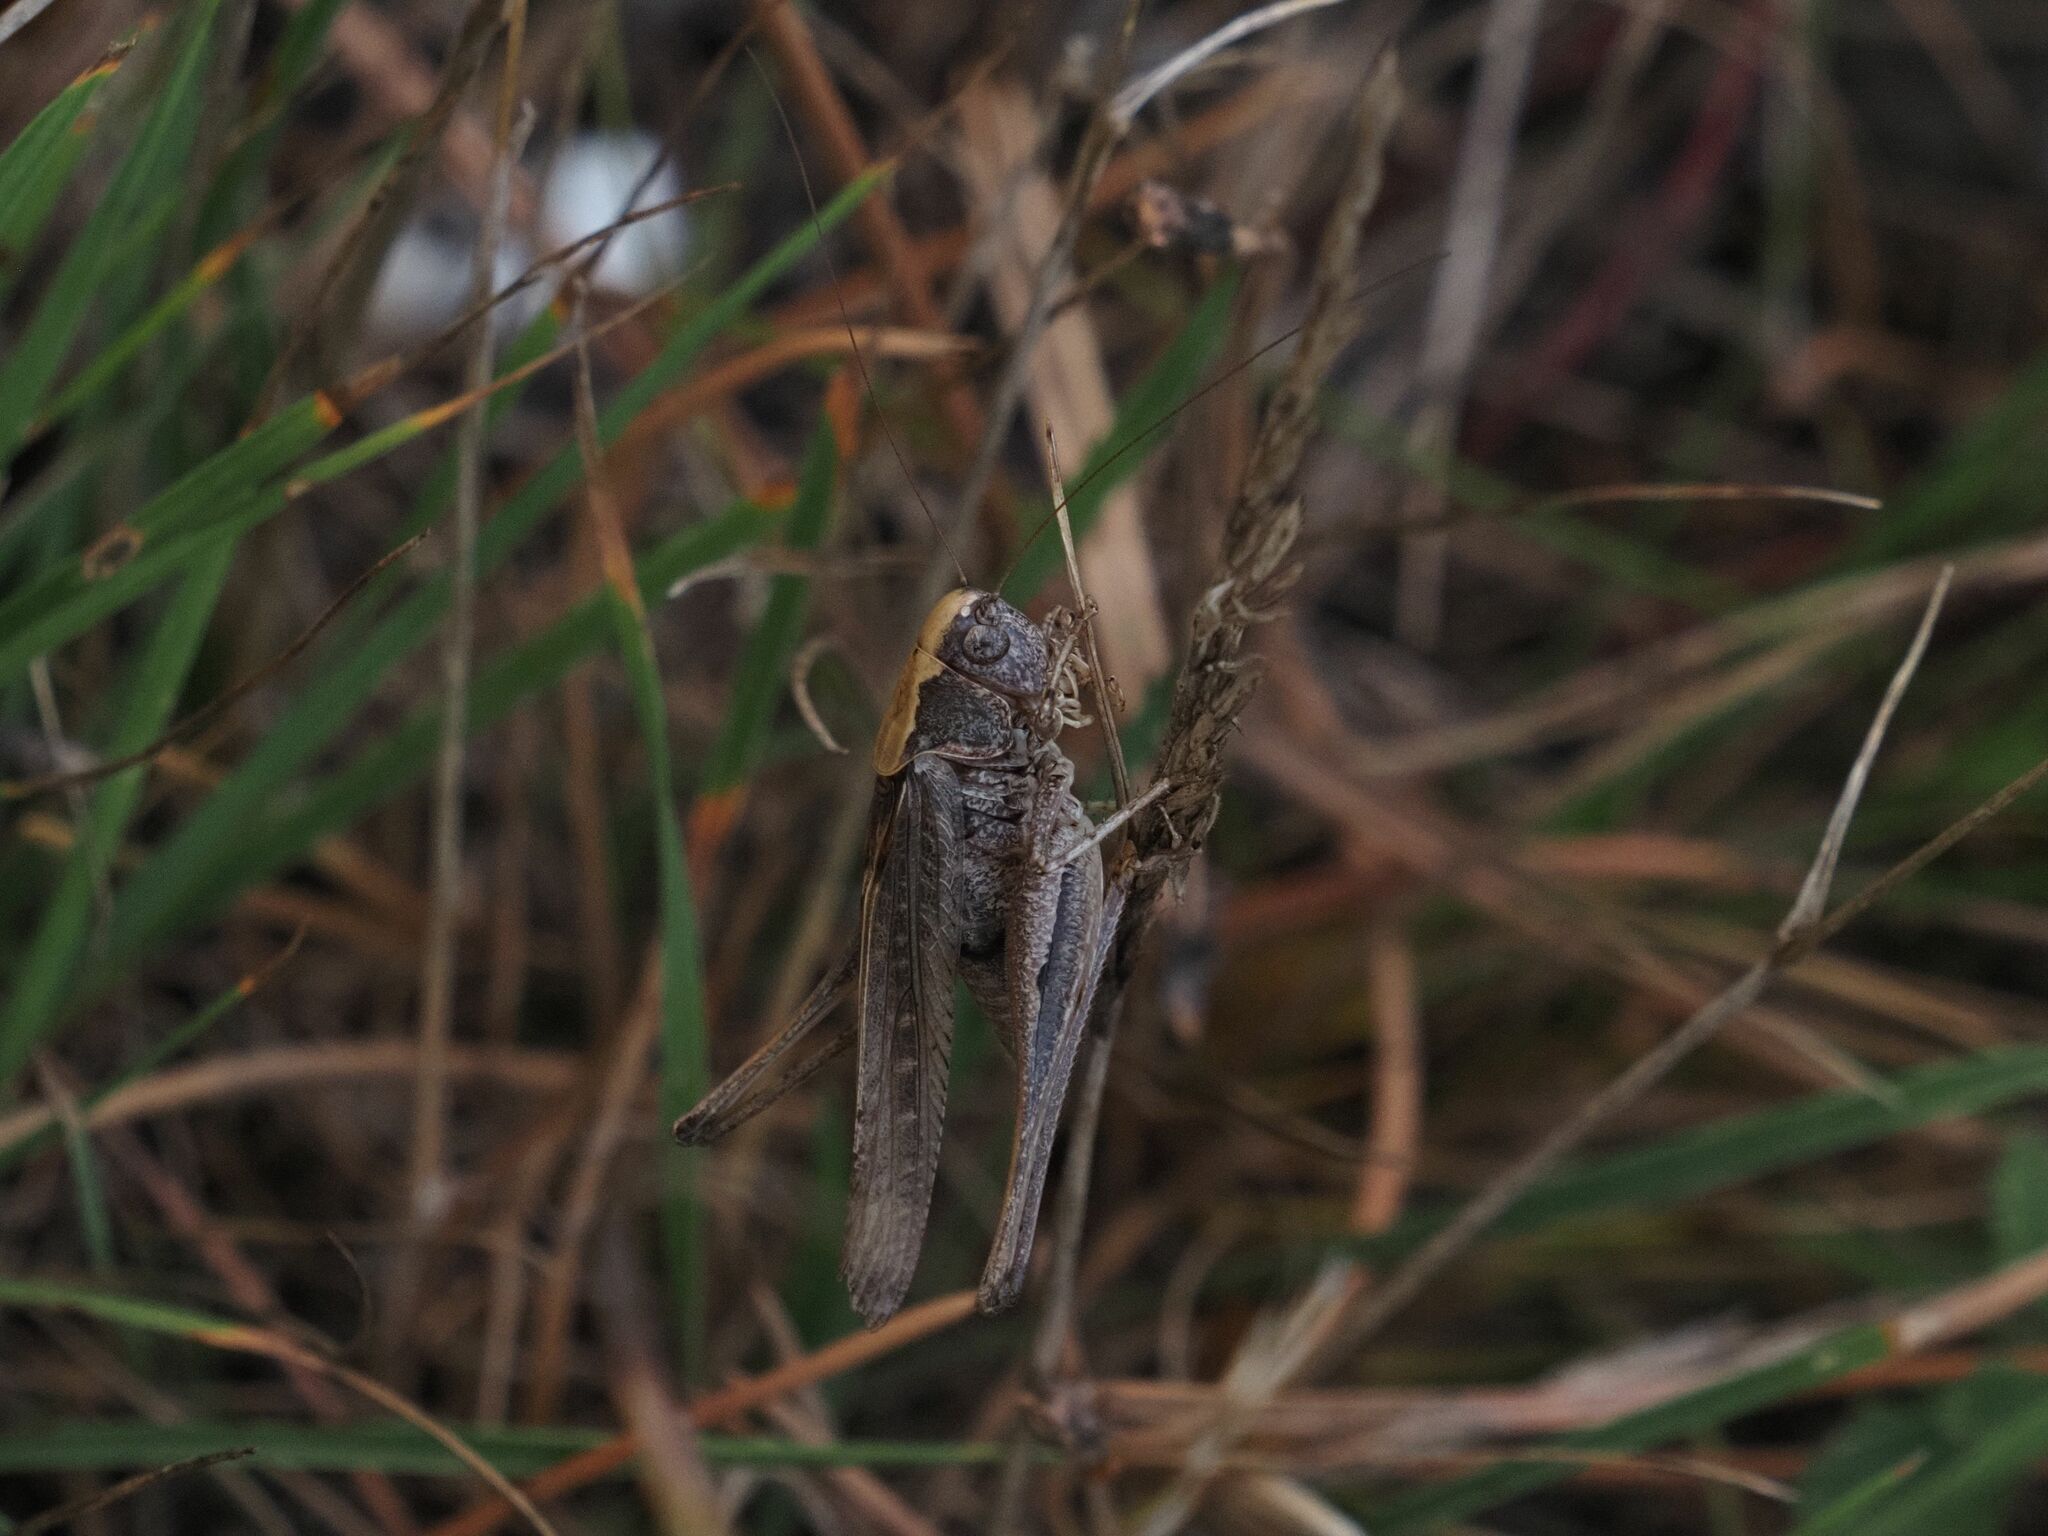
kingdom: Animalia
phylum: Arthropoda
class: Insecta
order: Orthoptera
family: Tettigoniidae
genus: Platycleis
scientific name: Platycleis grisea
